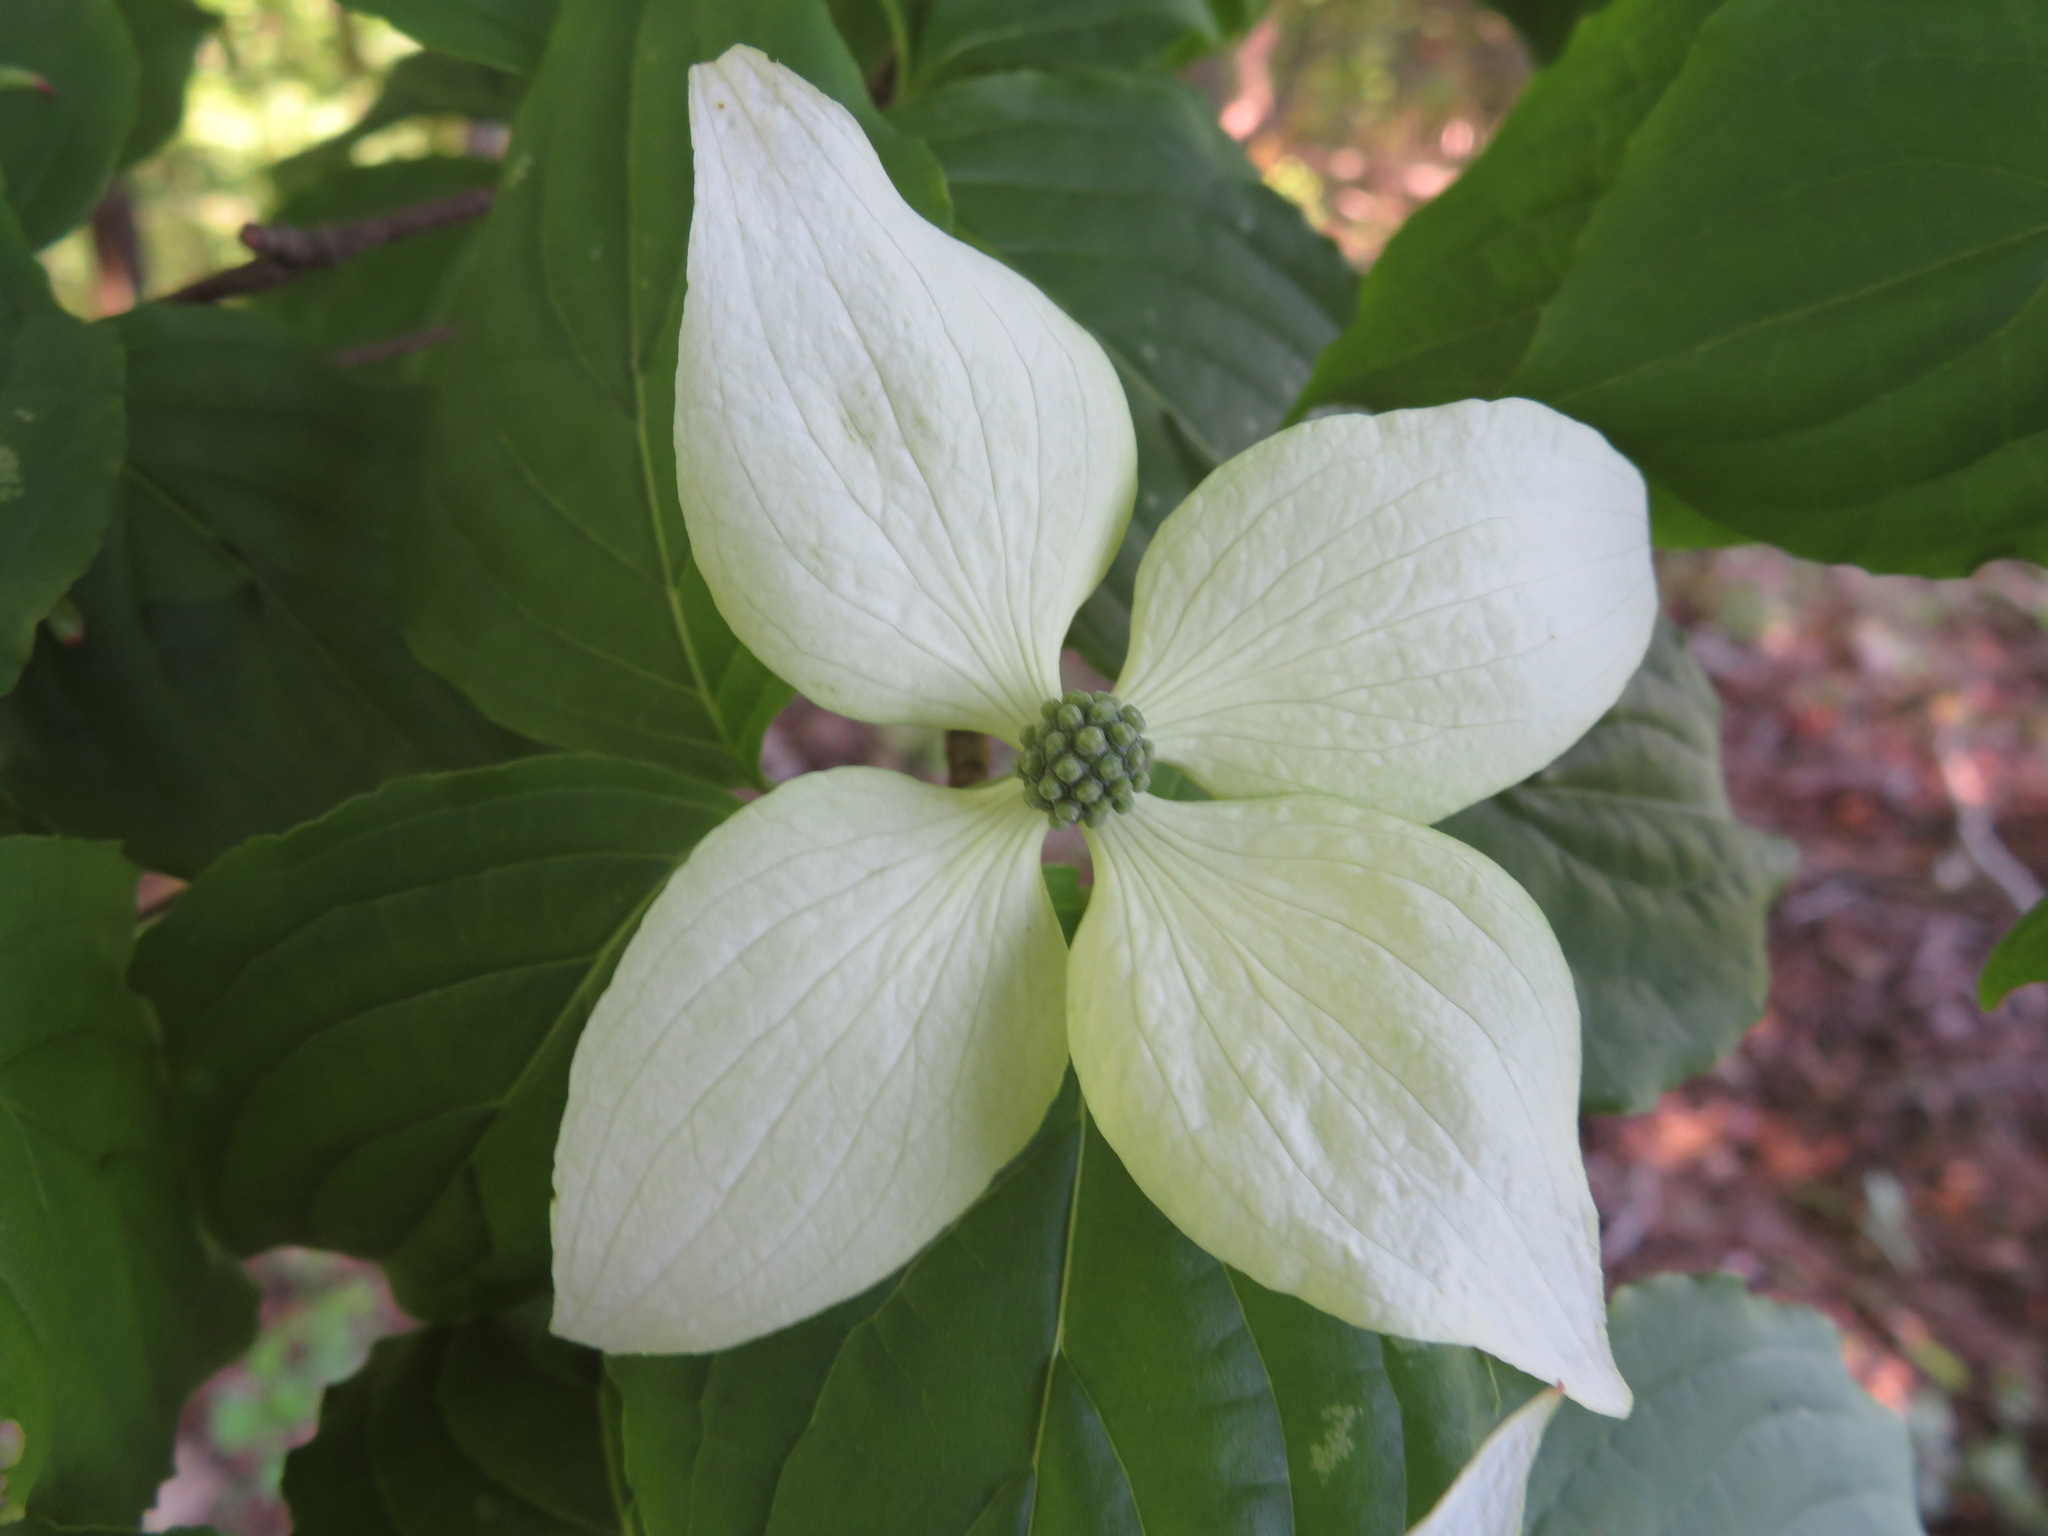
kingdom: Plantae
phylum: Tracheophyta
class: Magnoliopsida
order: Cornales
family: Cornaceae
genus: Cornus
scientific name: Cornus kousa
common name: Japanese dogwood
